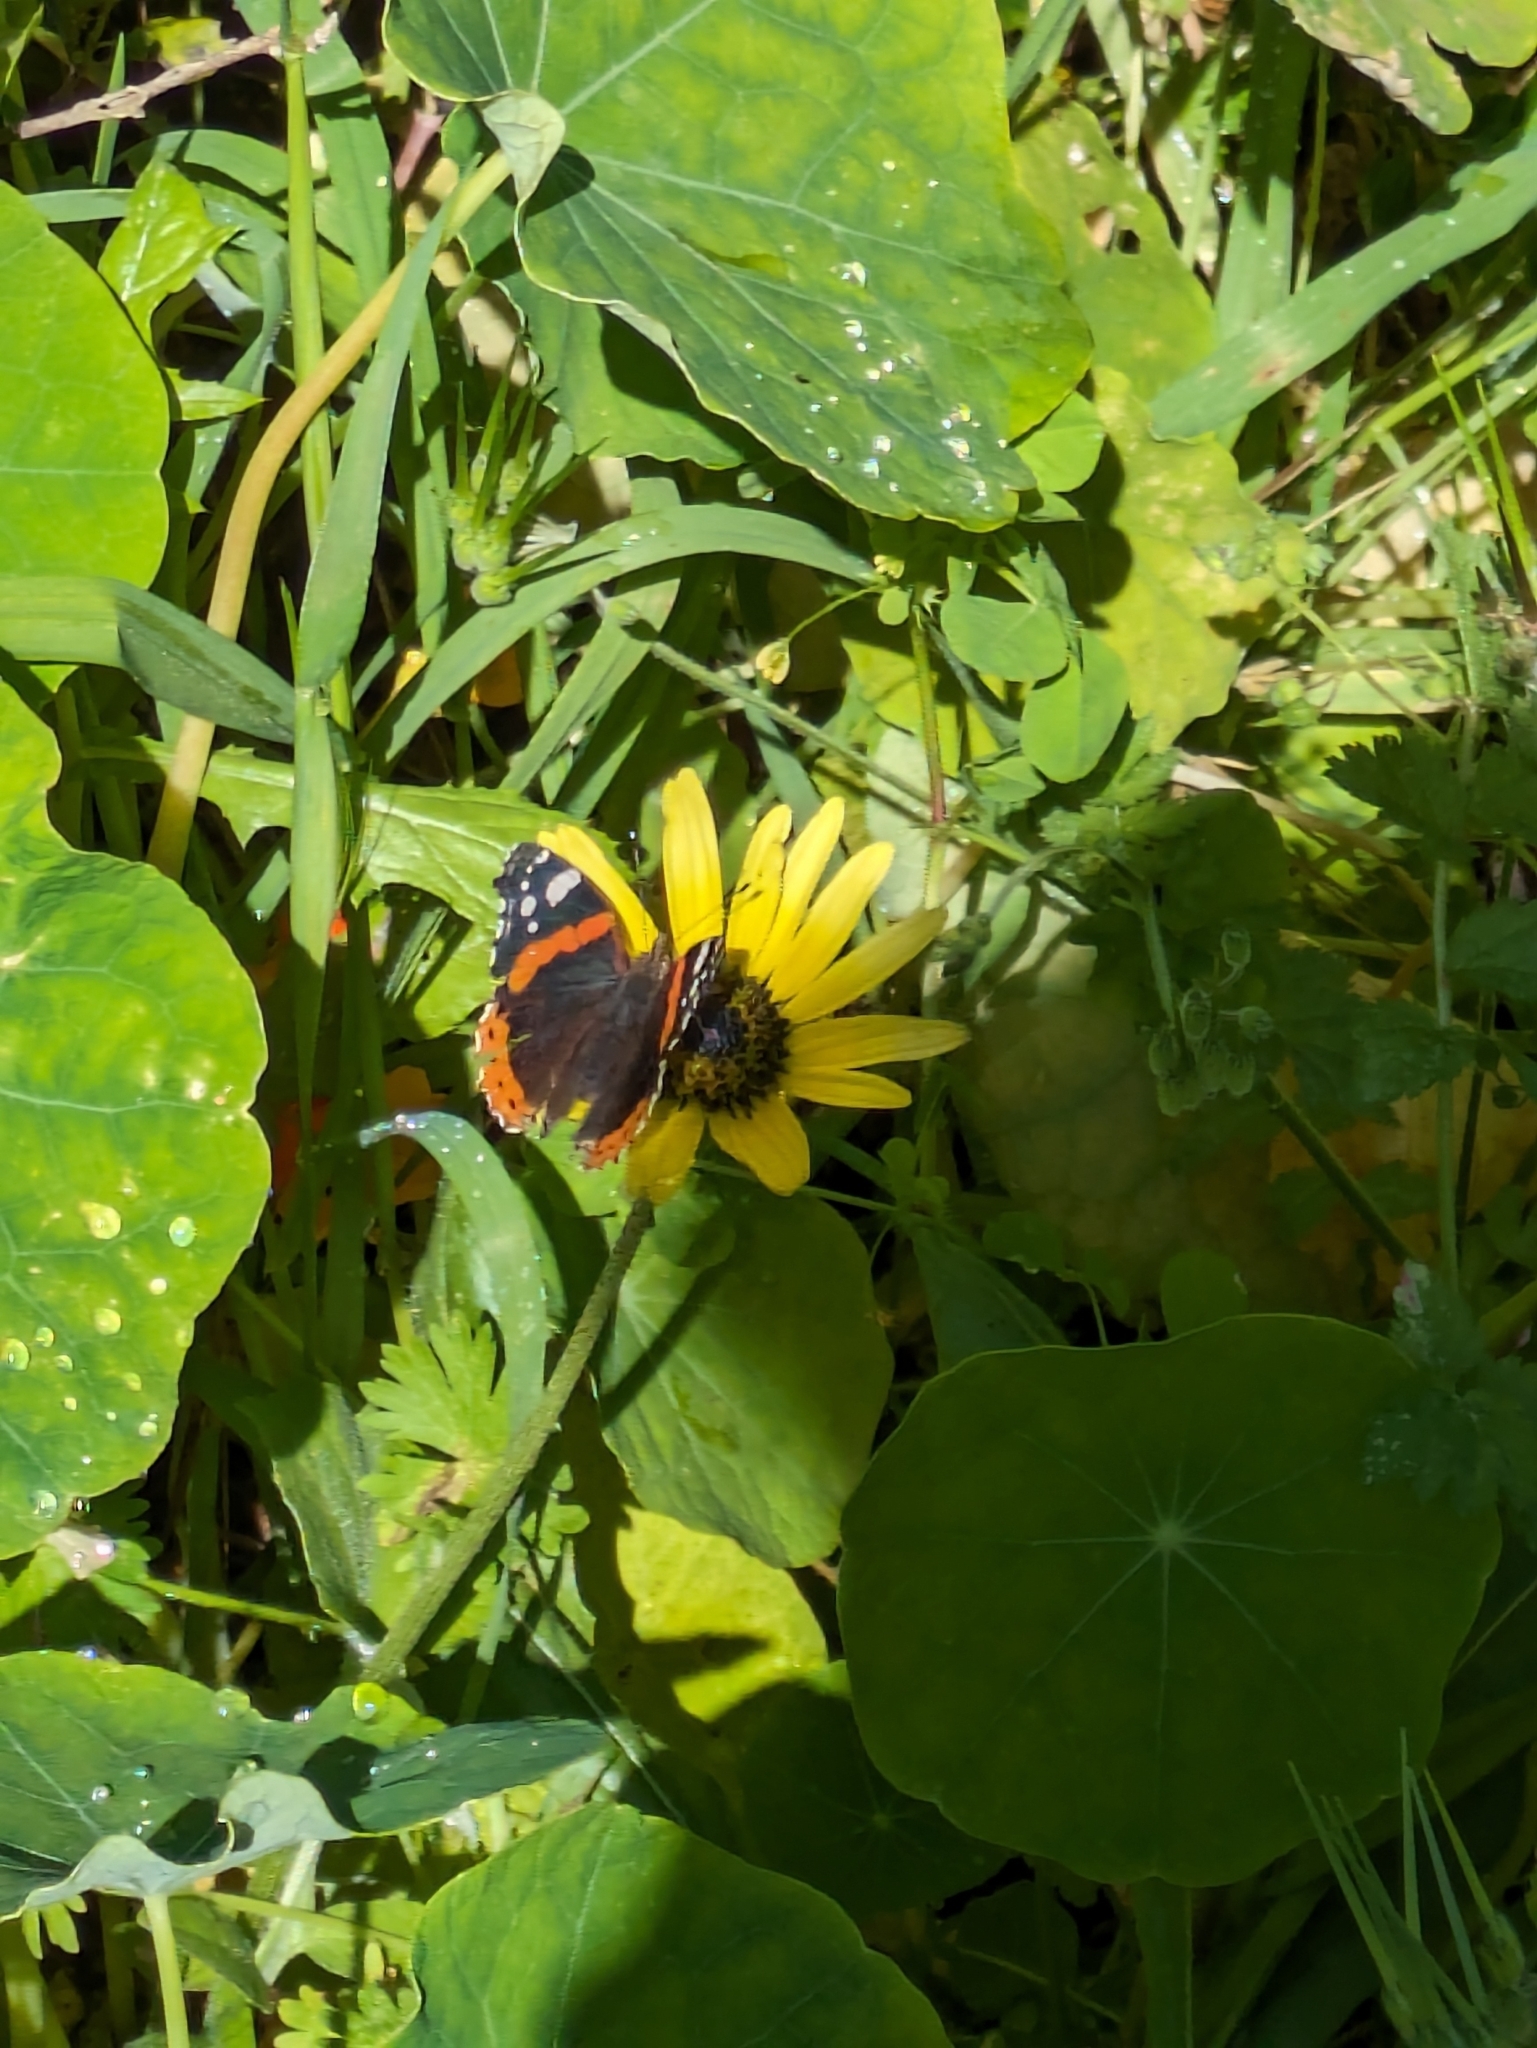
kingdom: Animalia
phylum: Arthropoda
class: Insecta
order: Lepidoptera
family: Nymphalidae
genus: Vanessa
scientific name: Vanessa atalanta
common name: Red admiral
